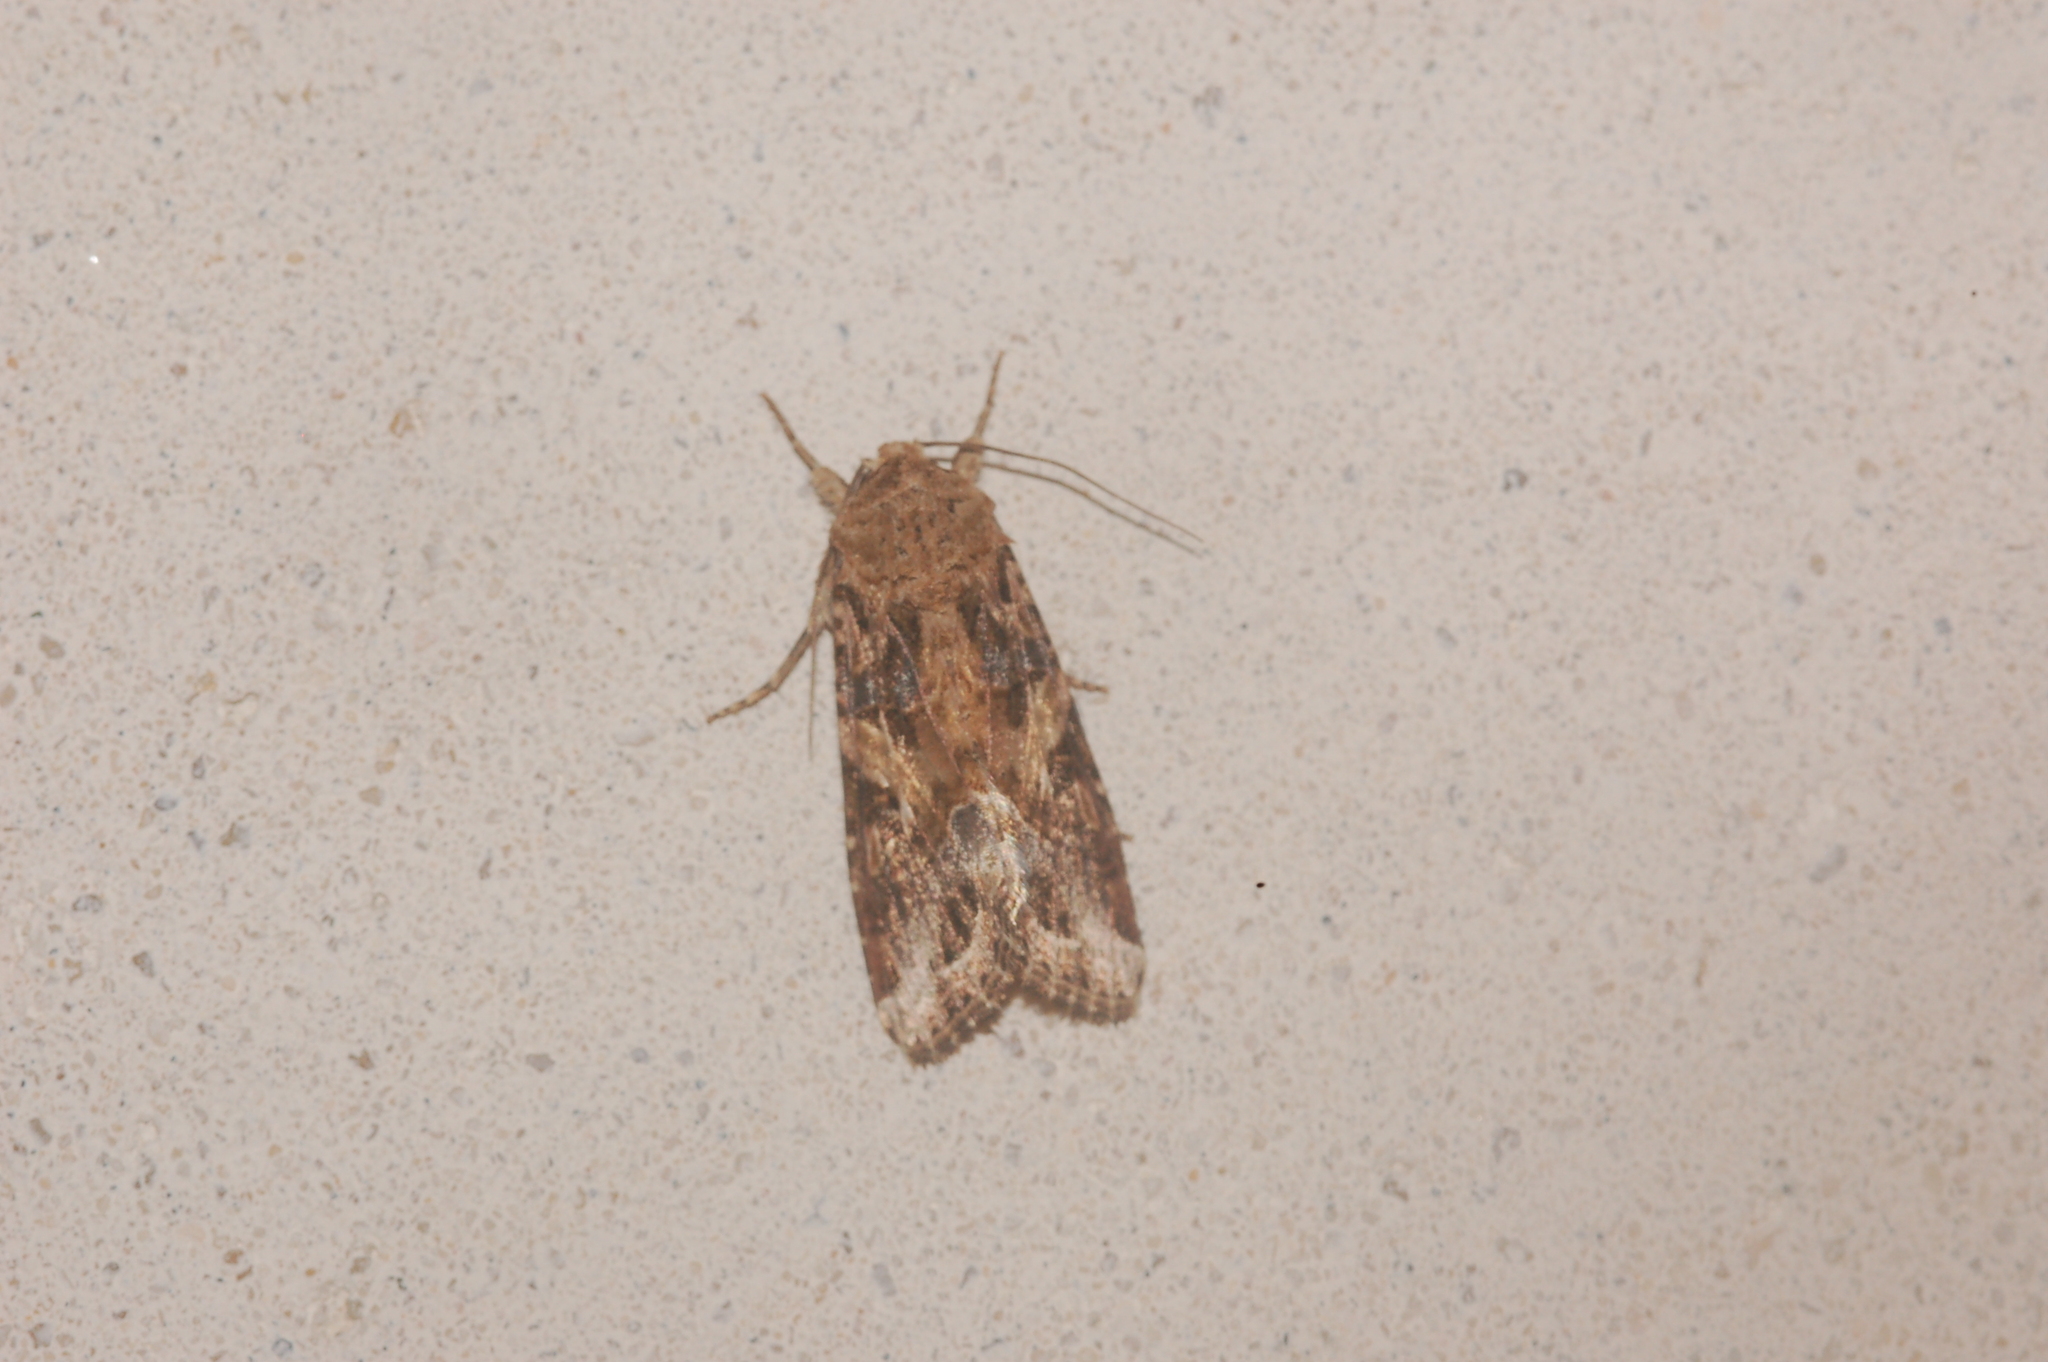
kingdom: Animalia
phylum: Arthropoda
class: Insecta
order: Lepidoptera
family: Noctuidae
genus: Spodoptera
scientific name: Spodoptera ornithogalli
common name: Yellow-striped armyworm
